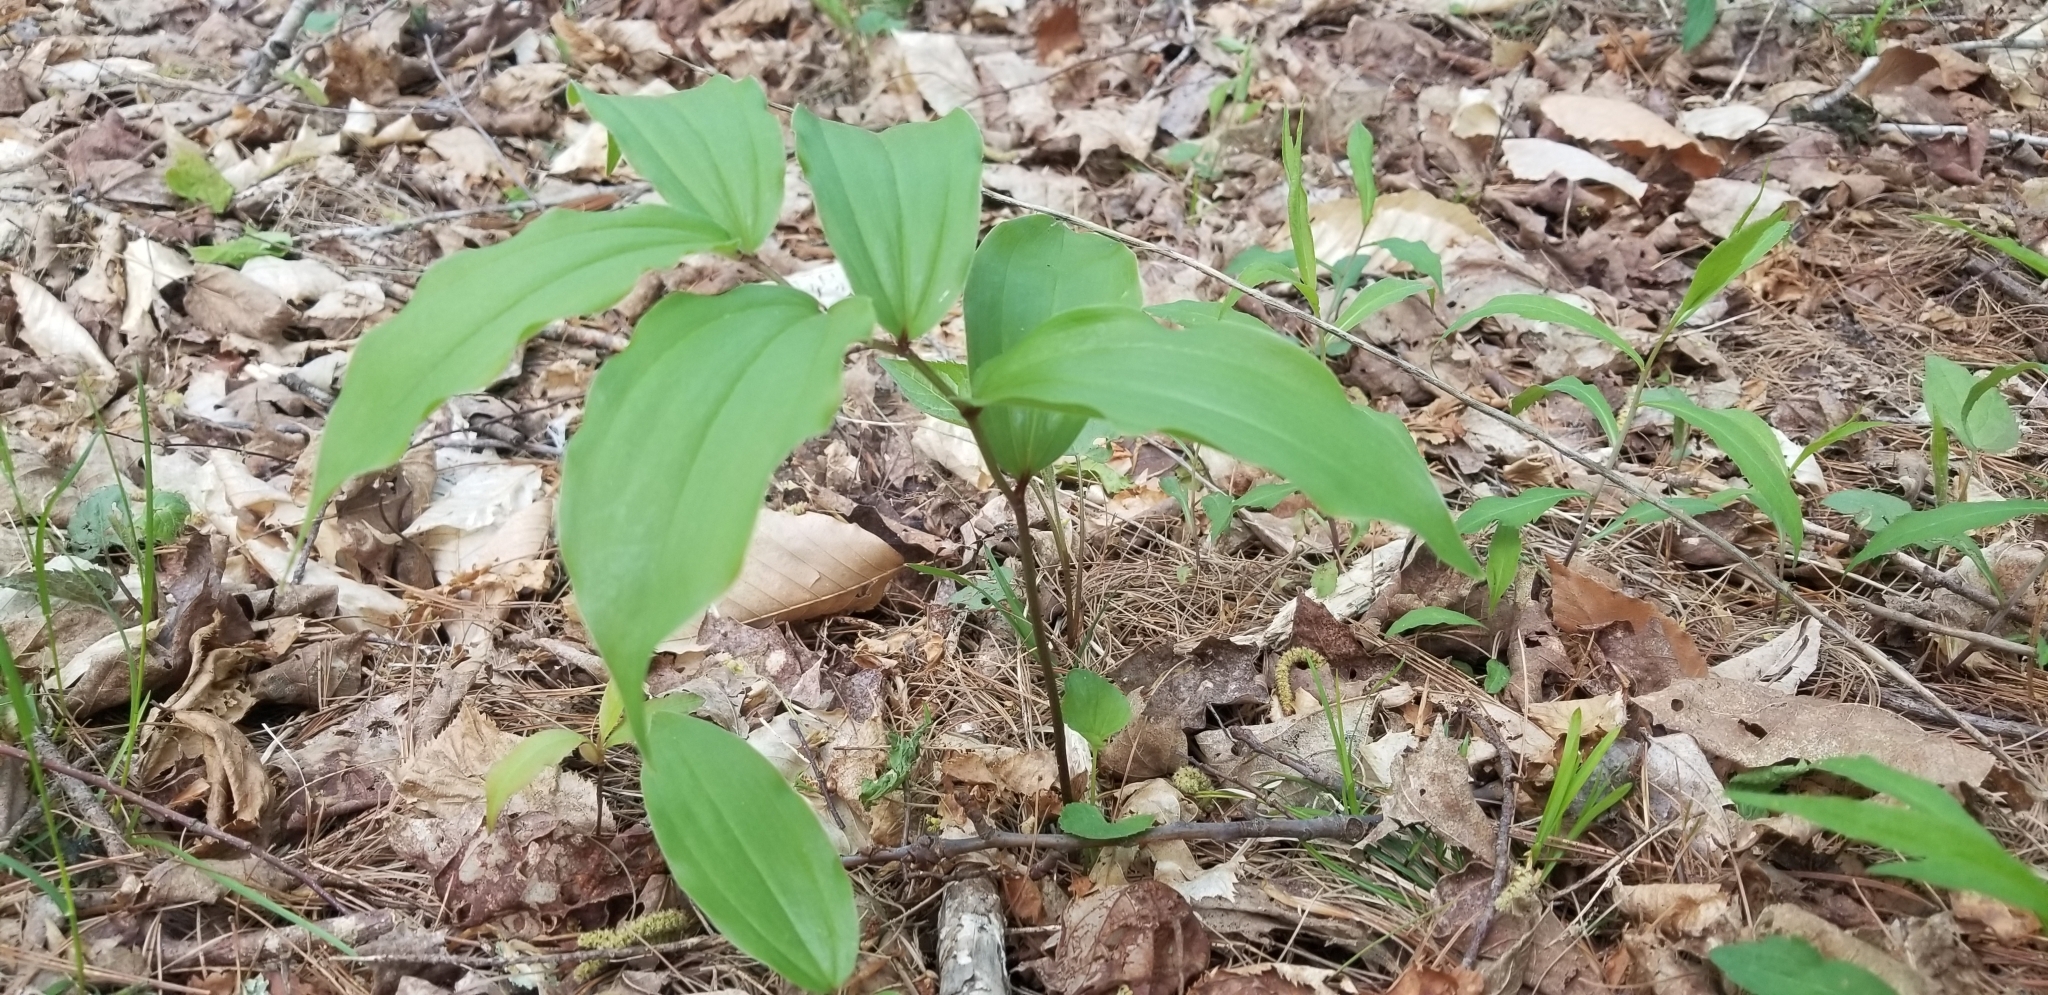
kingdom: Plantae
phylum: Tracheophyta
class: Liliopsida
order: Asparagales
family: Asparagaceae
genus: Maianthemum
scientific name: Maianthemum racemosum
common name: False spikenard
